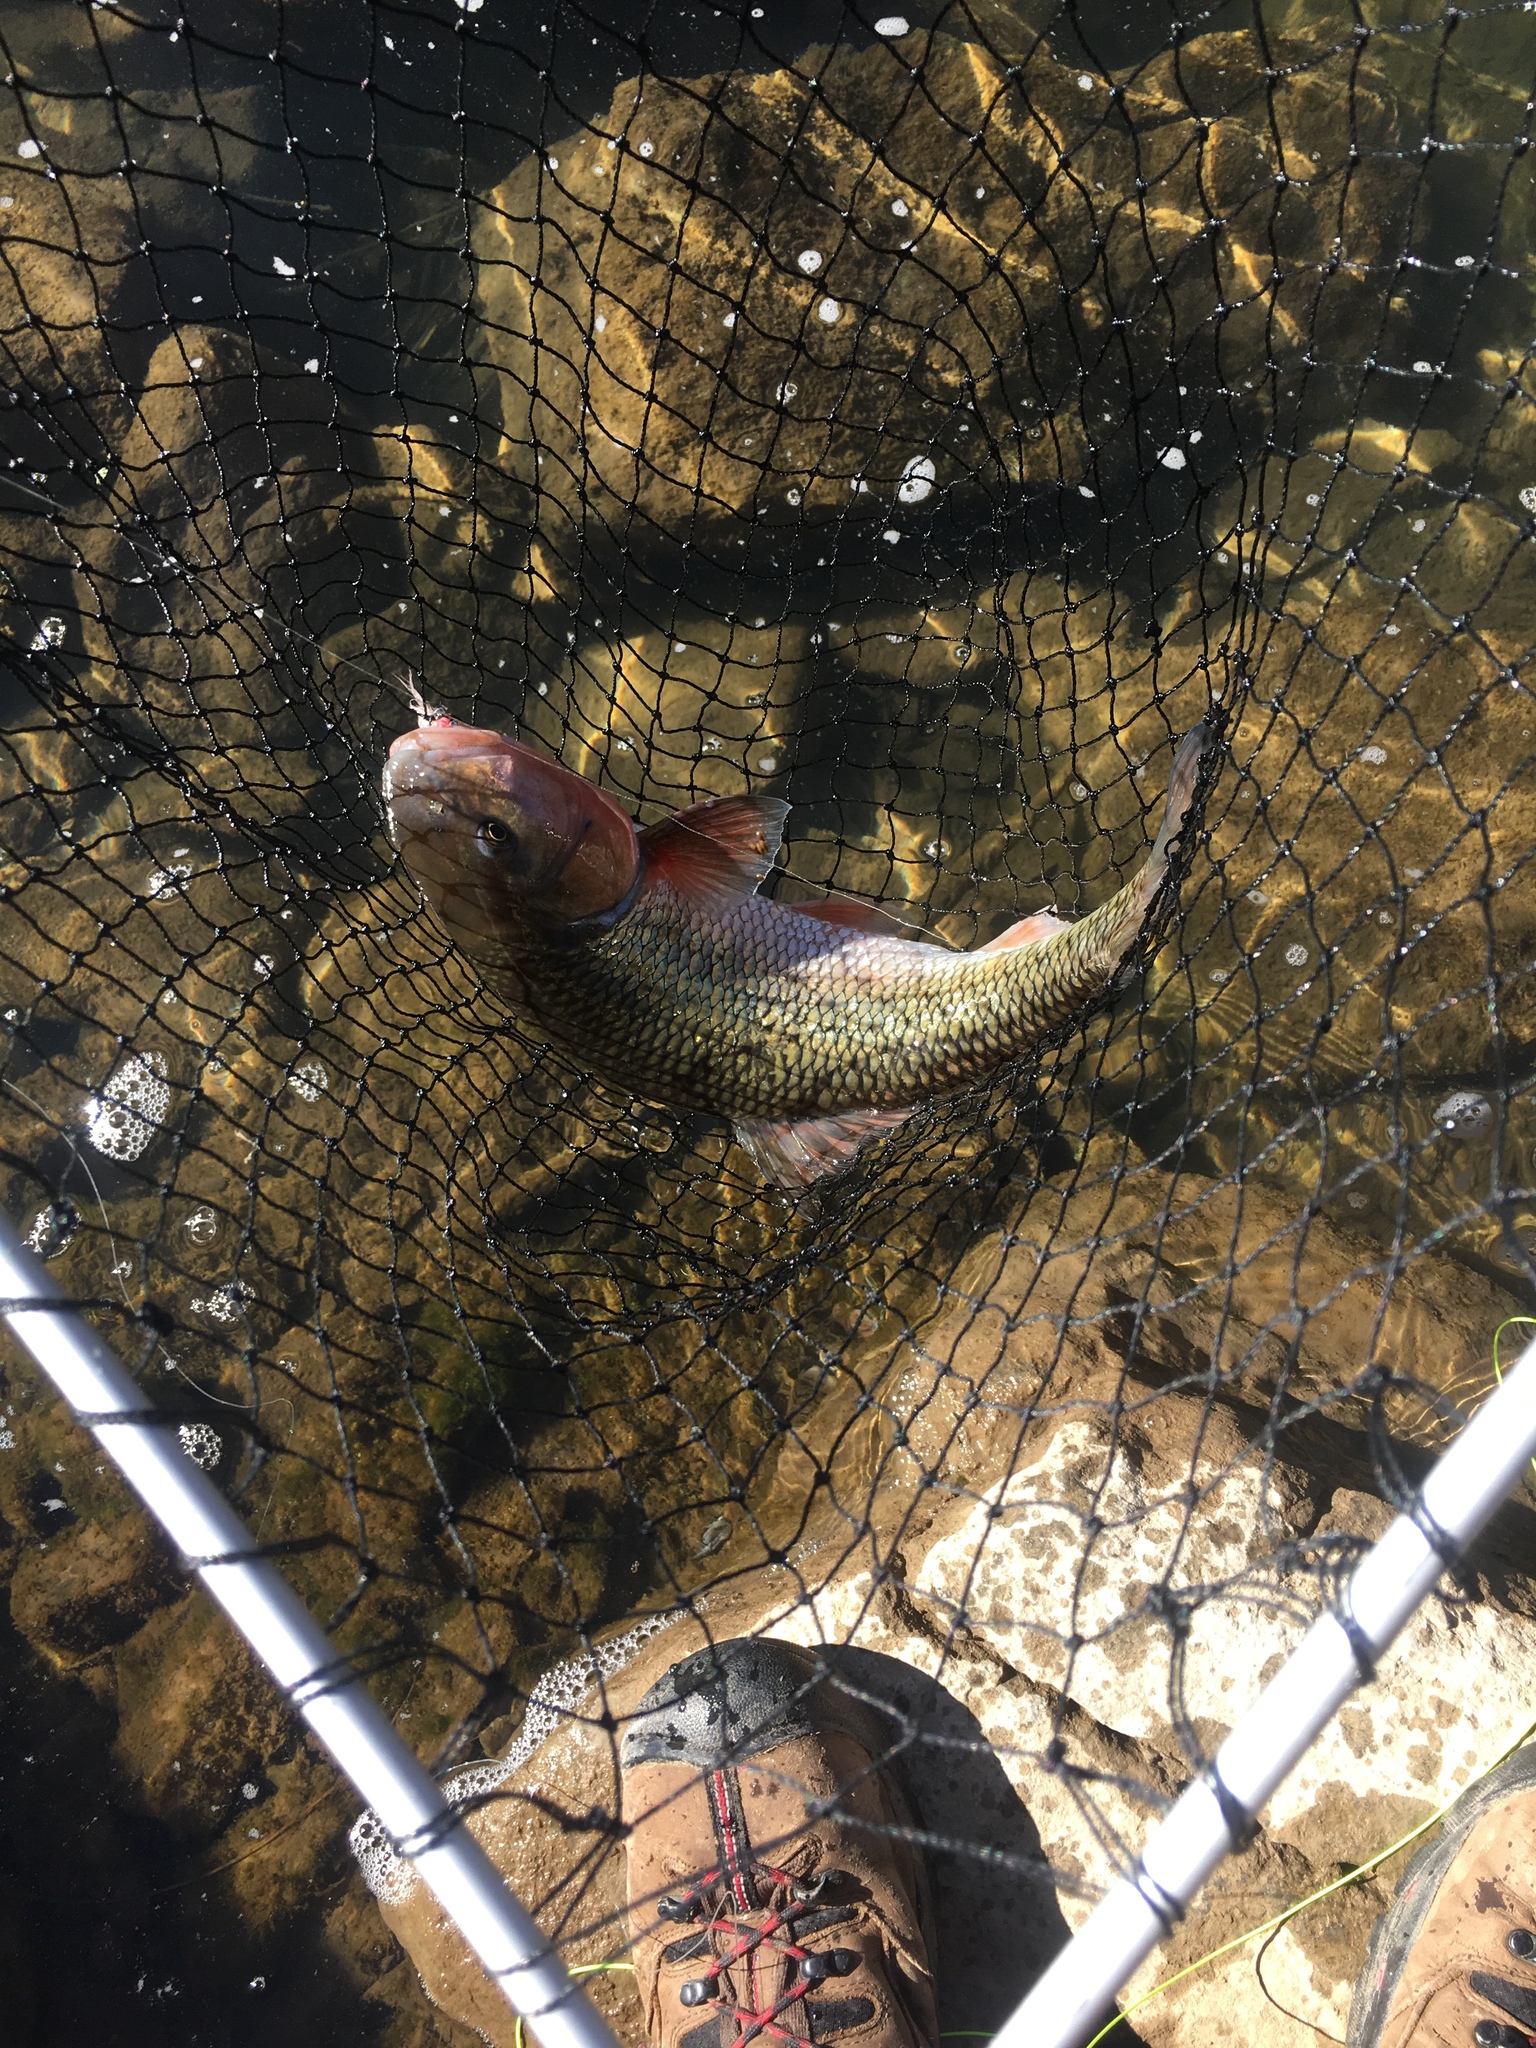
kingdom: Animalia
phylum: Chordata
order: Cypriniformes
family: Cyprinidae
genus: Semotilus
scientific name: Semotilus corporalis
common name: Fallfish
